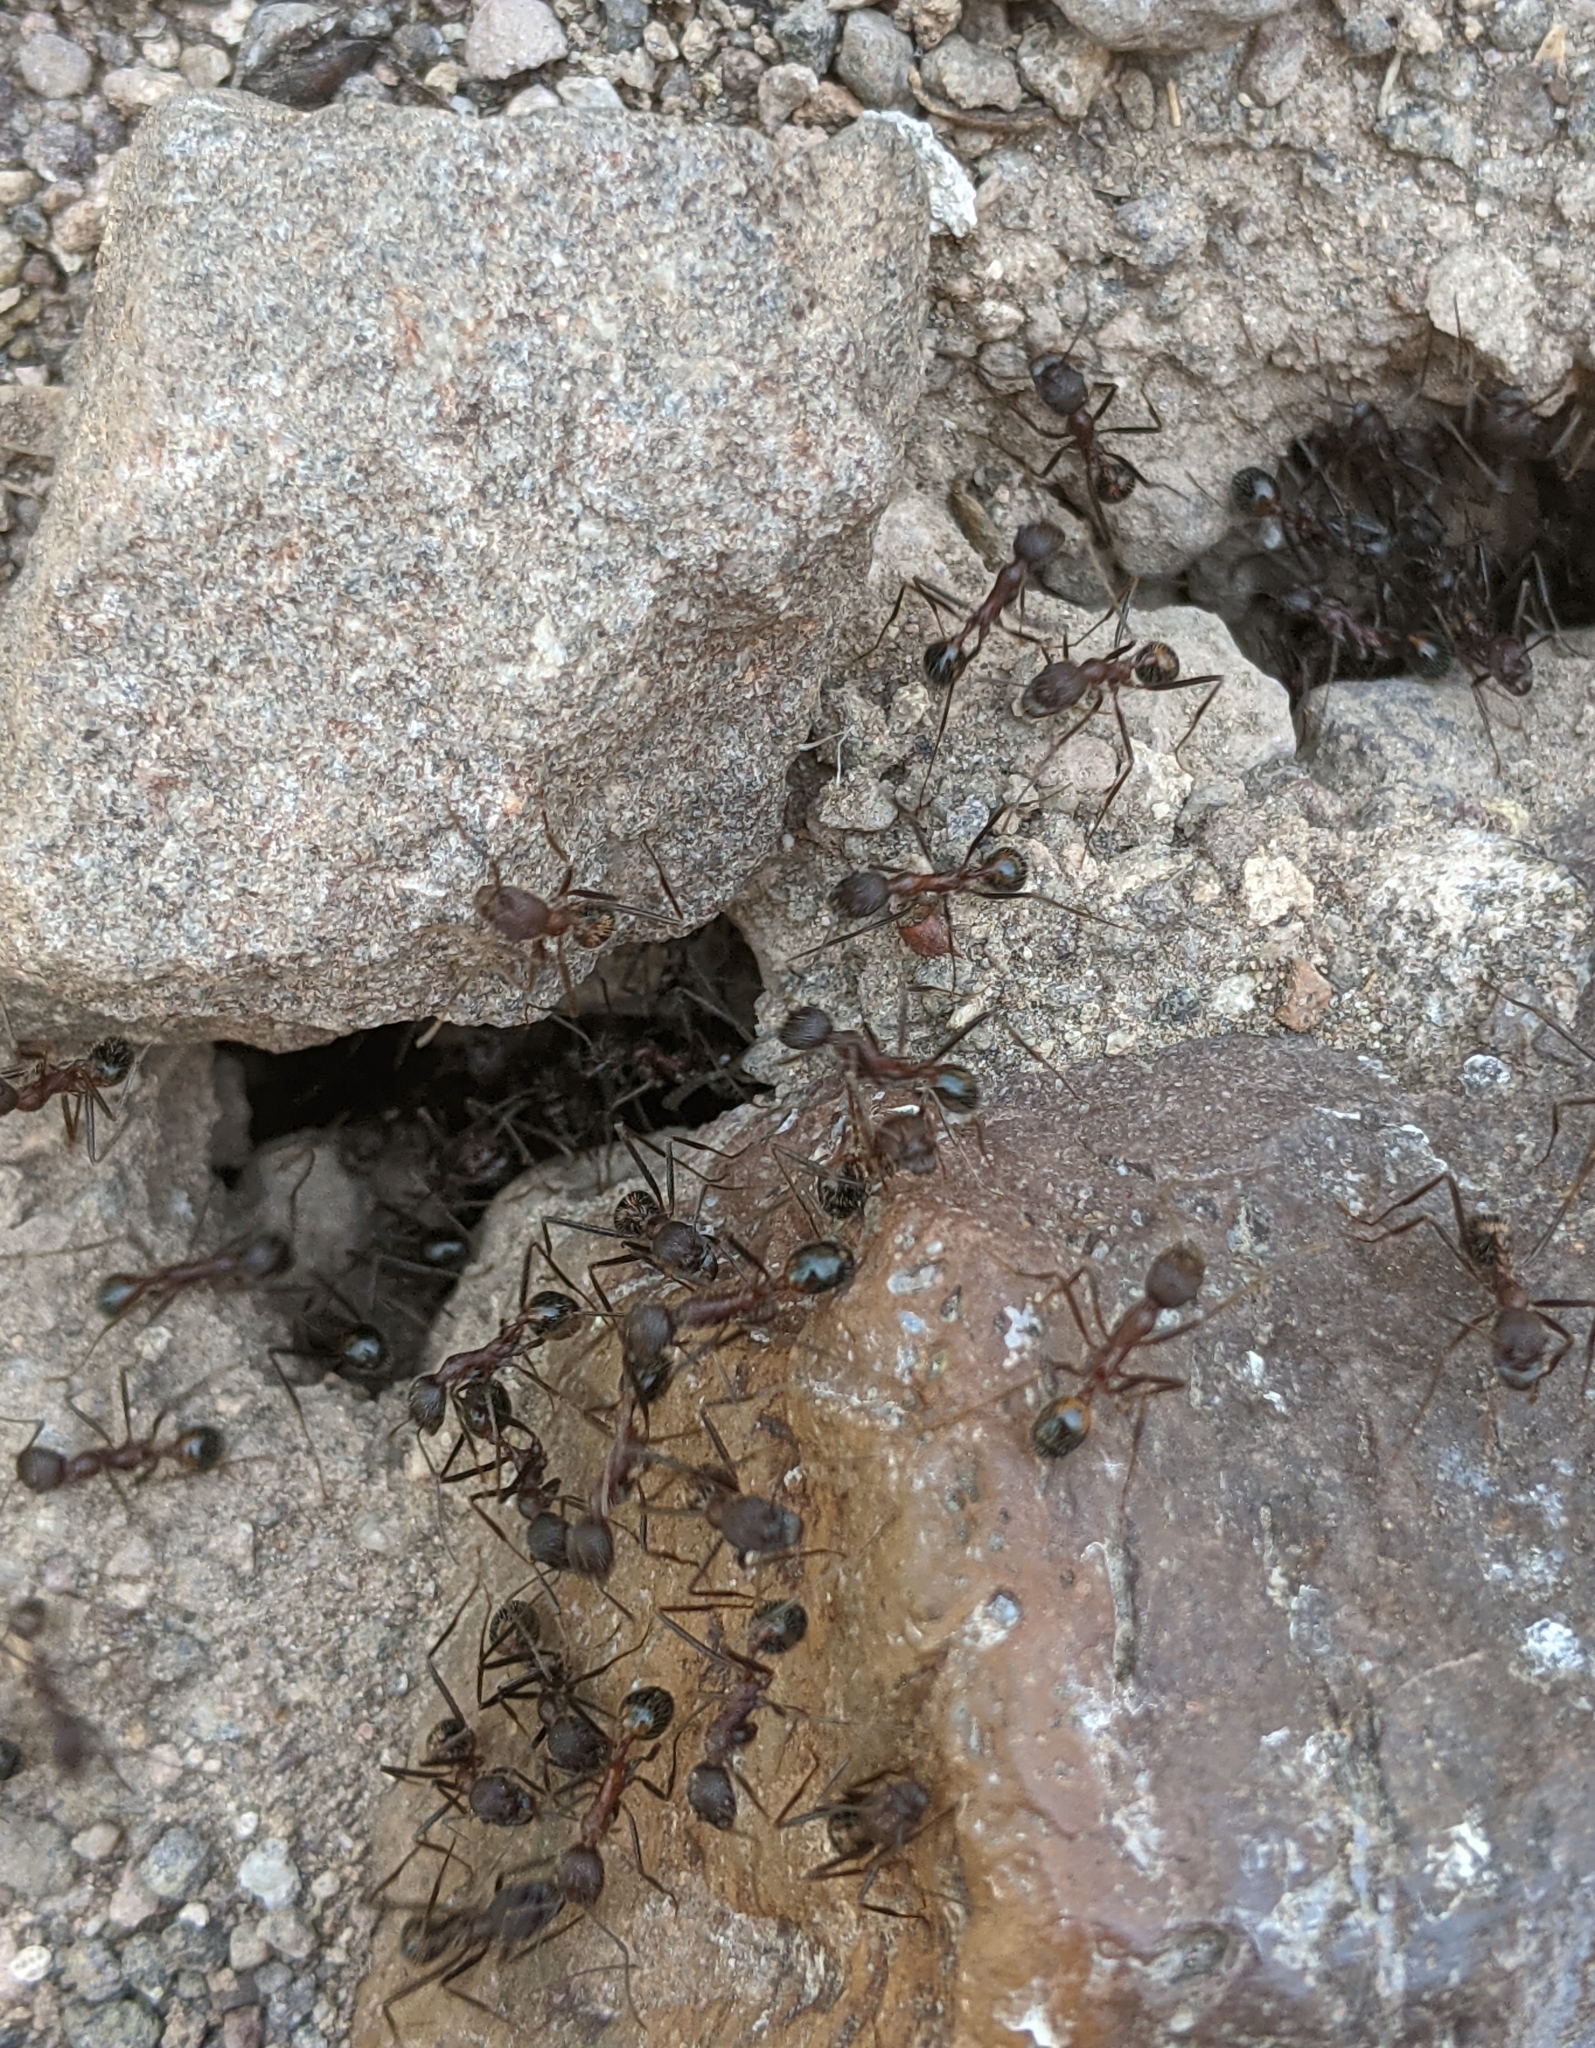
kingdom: Animalia
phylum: Arthropoda
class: Insecta
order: Hymenoptera
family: Formicidae
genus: Novomessor
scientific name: Novomessor albisetosa
